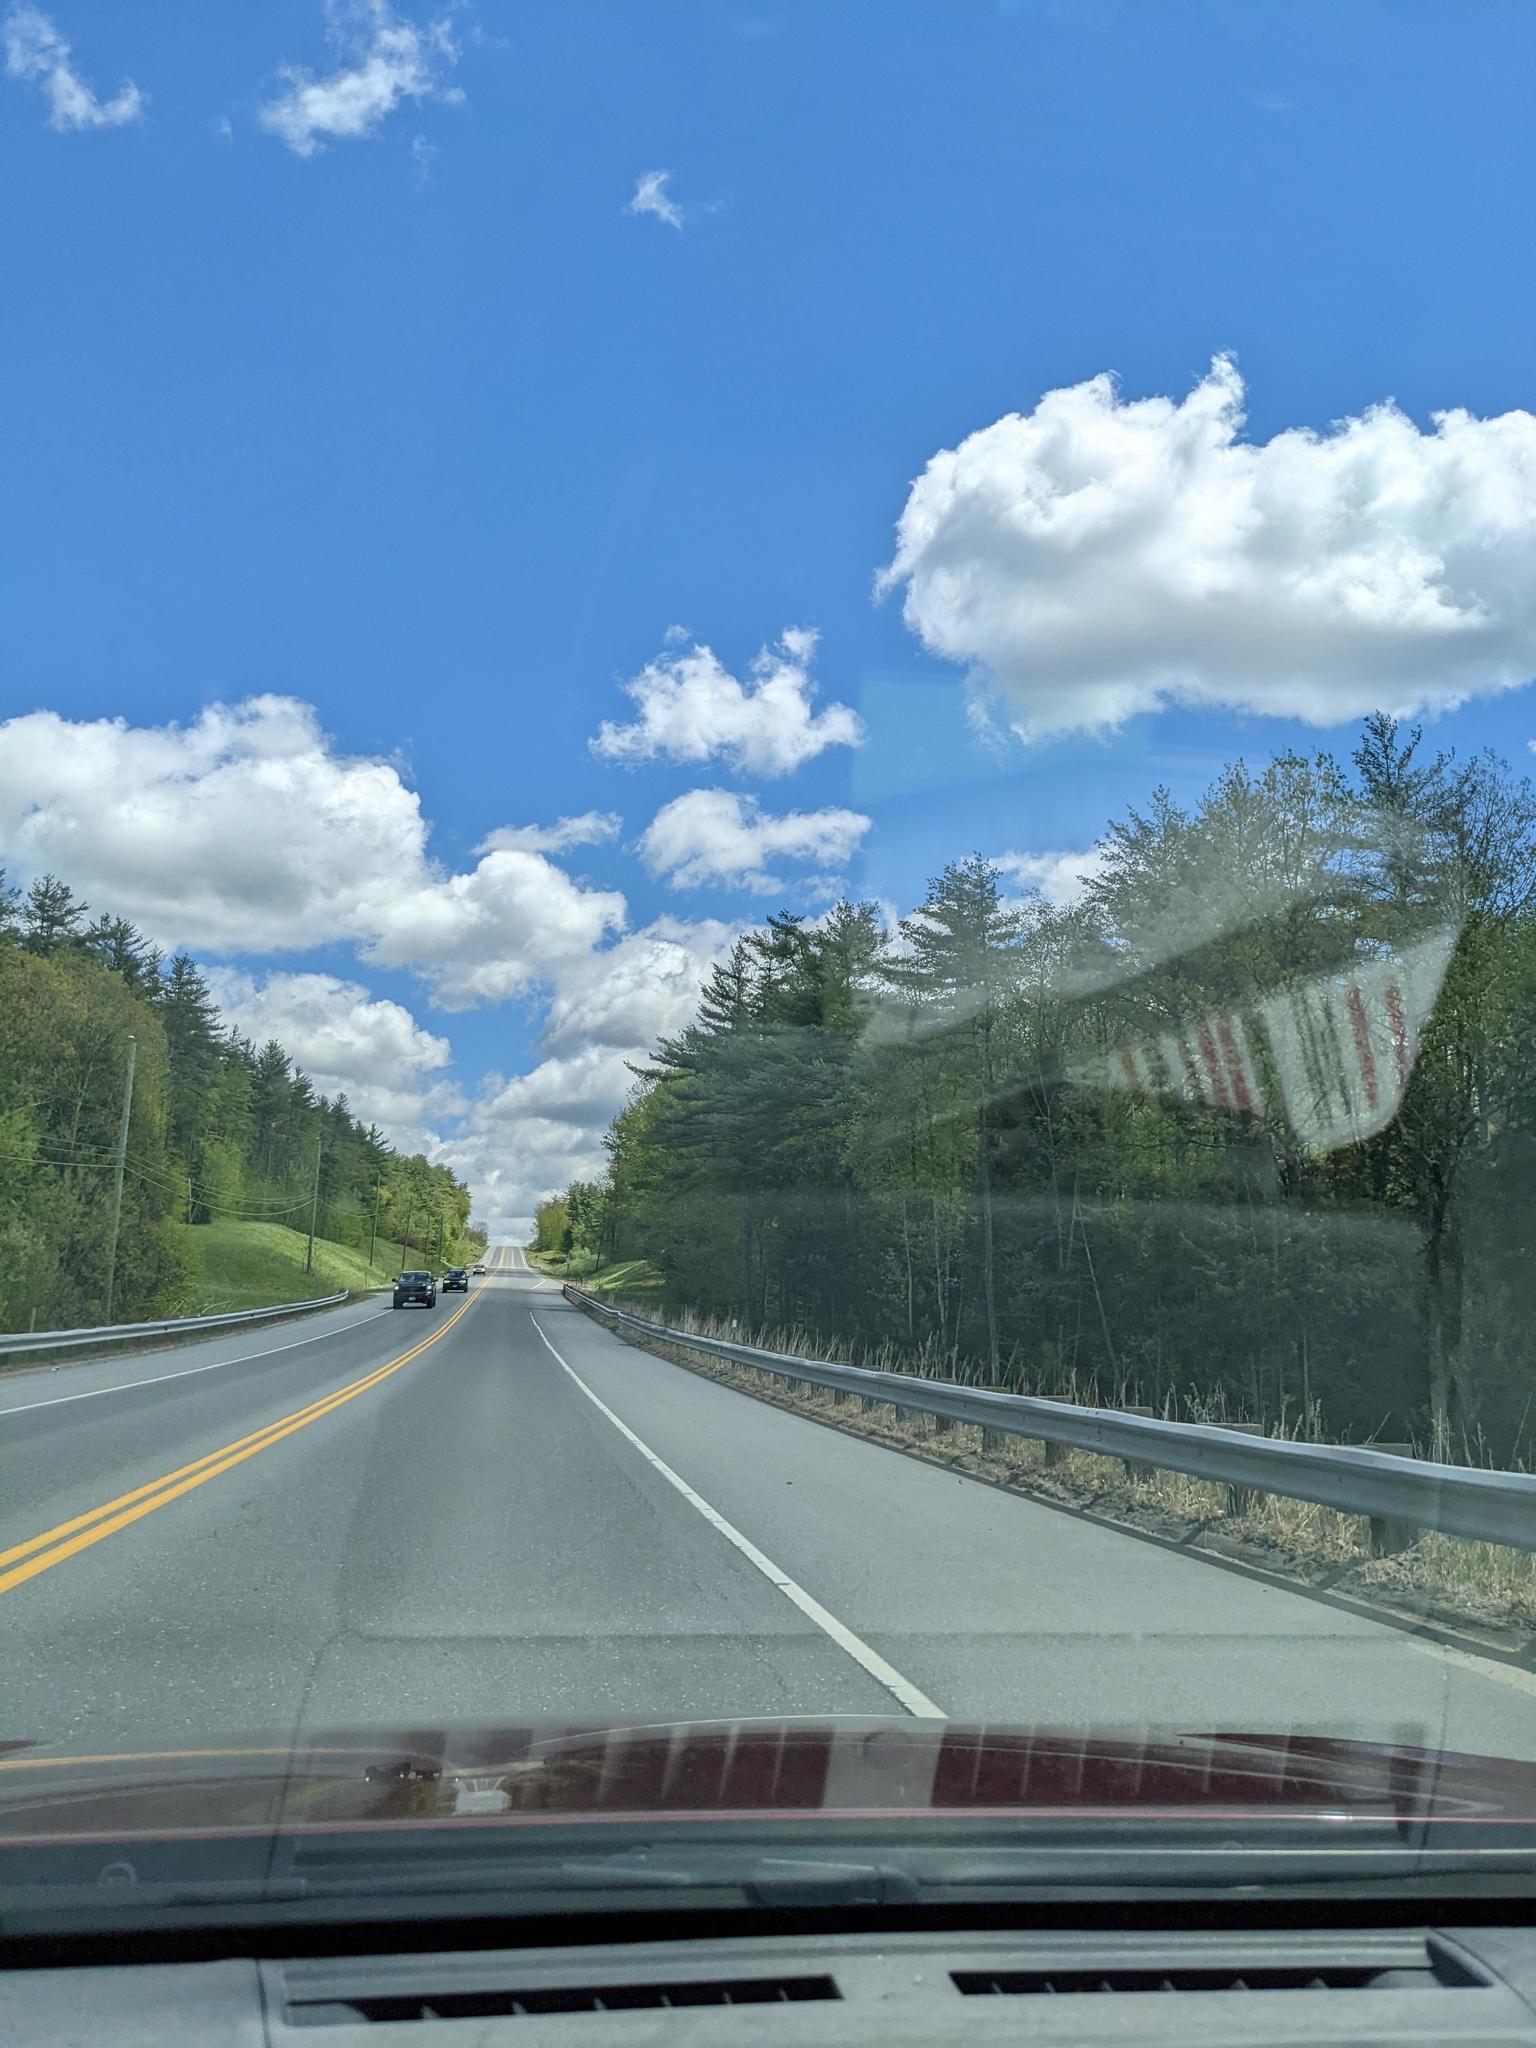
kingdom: Plantae
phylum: Tracheophyta
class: Pinopsida
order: Pinales
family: Pinaceae
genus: Pinus
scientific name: Pinus strobus
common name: Weymouth pine
